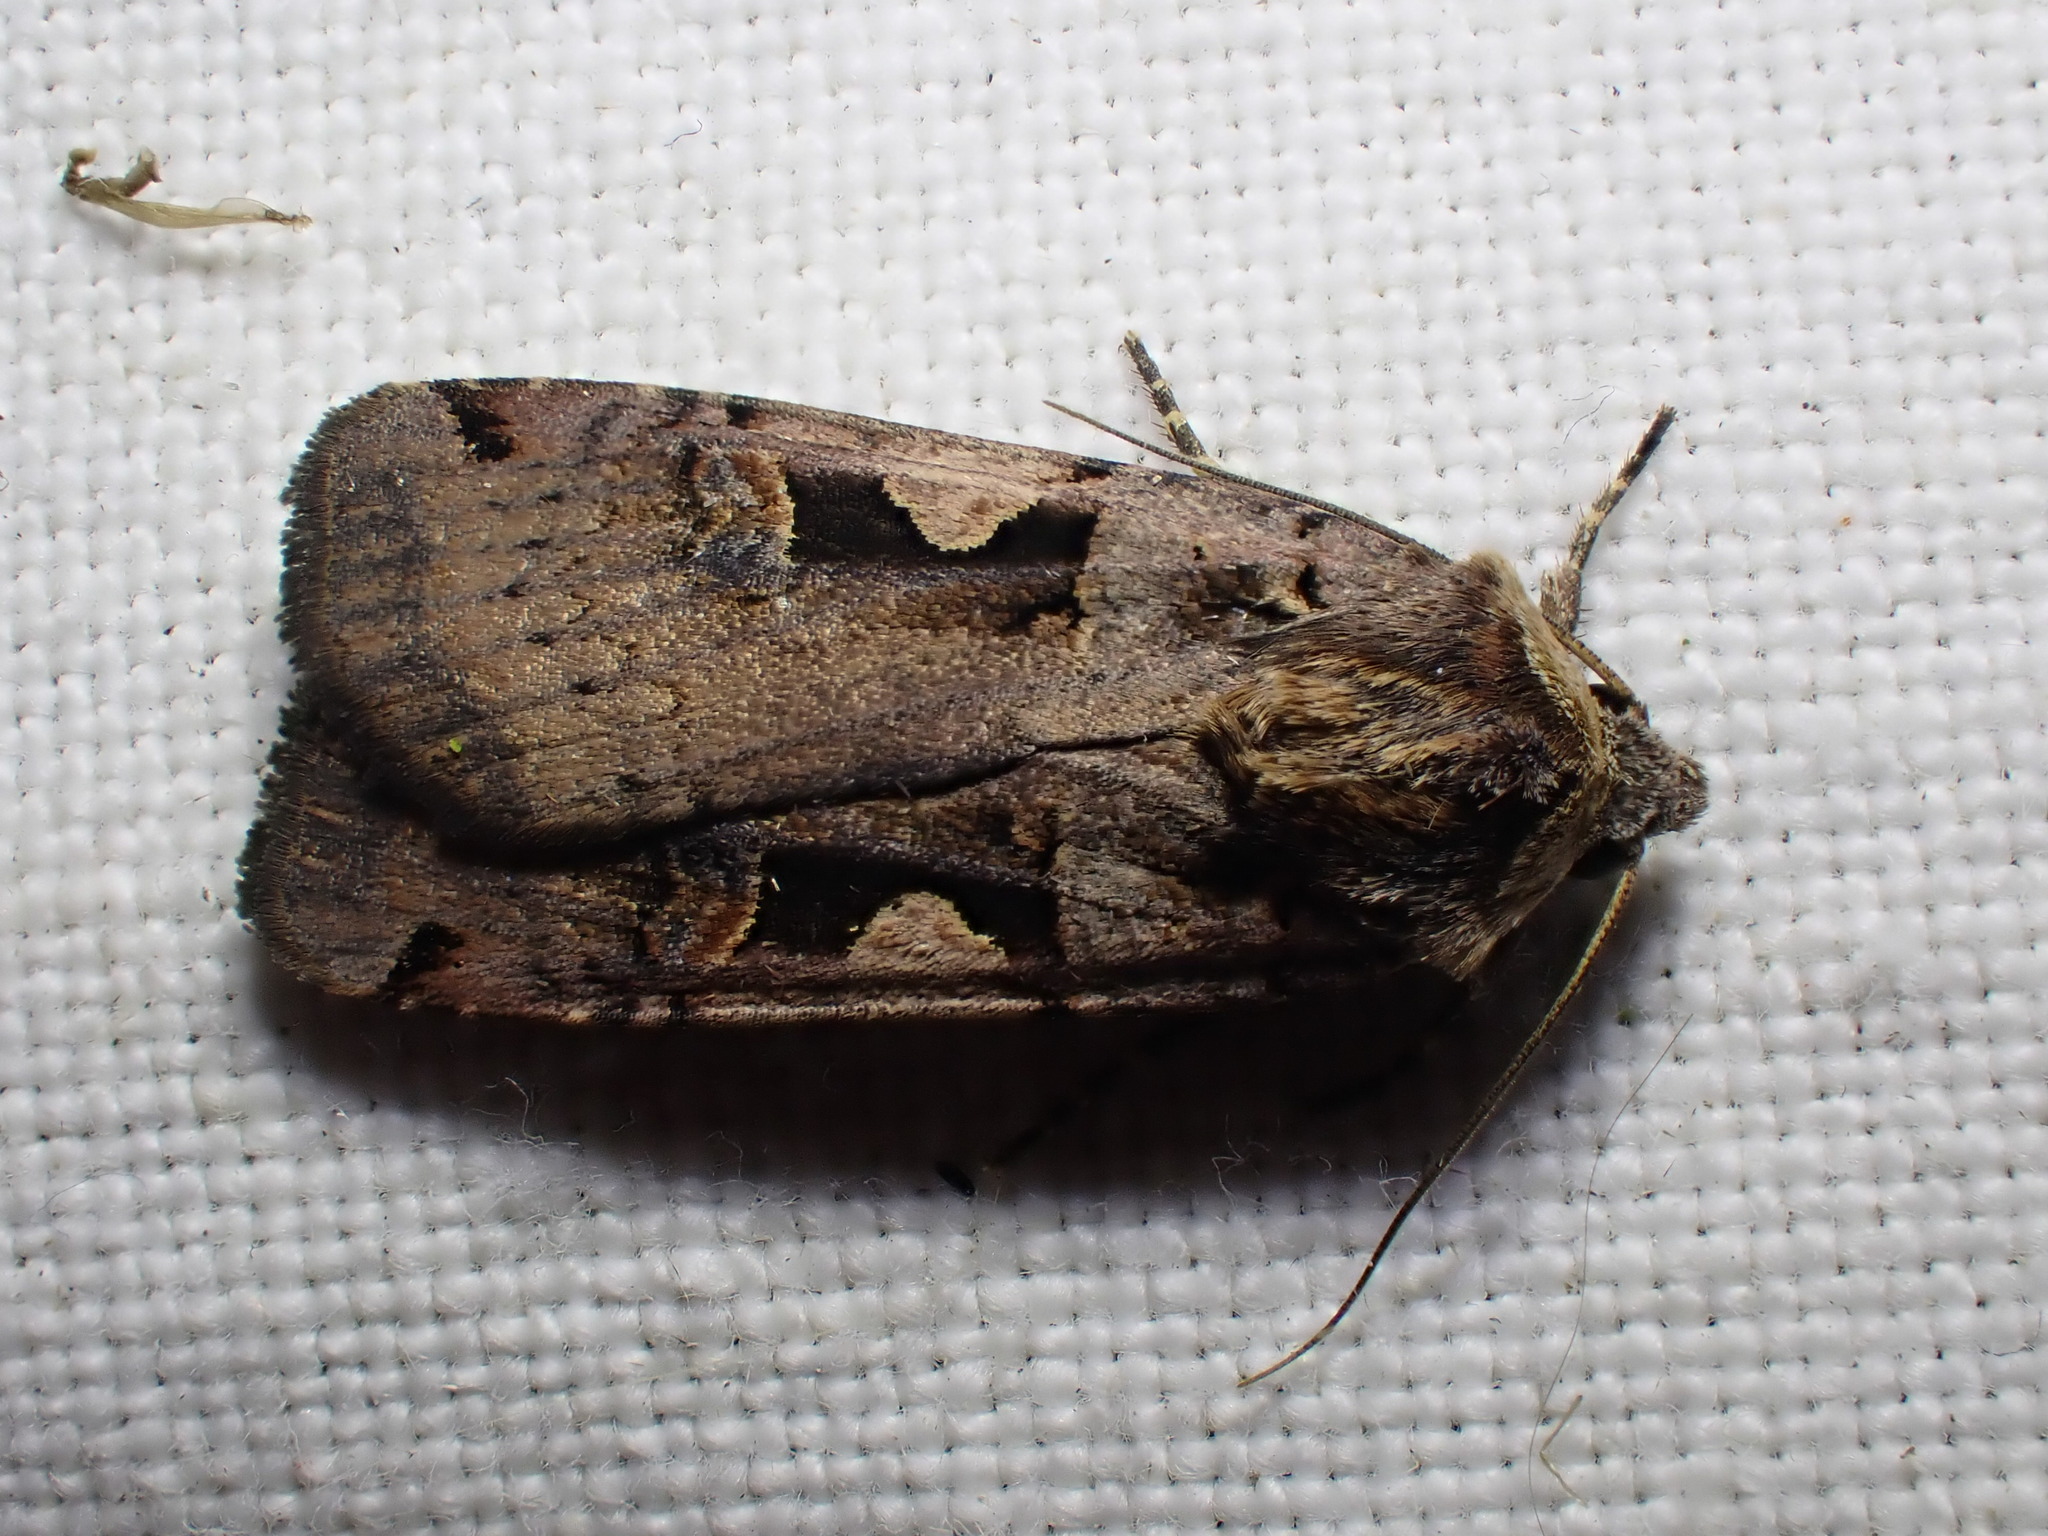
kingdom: Animalia
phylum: Arthropoda
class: Insecta
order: Lepidoptera
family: Noctuidae
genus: Xestia
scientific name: Xestia c-nigrum
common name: Setaceous hebrew character
